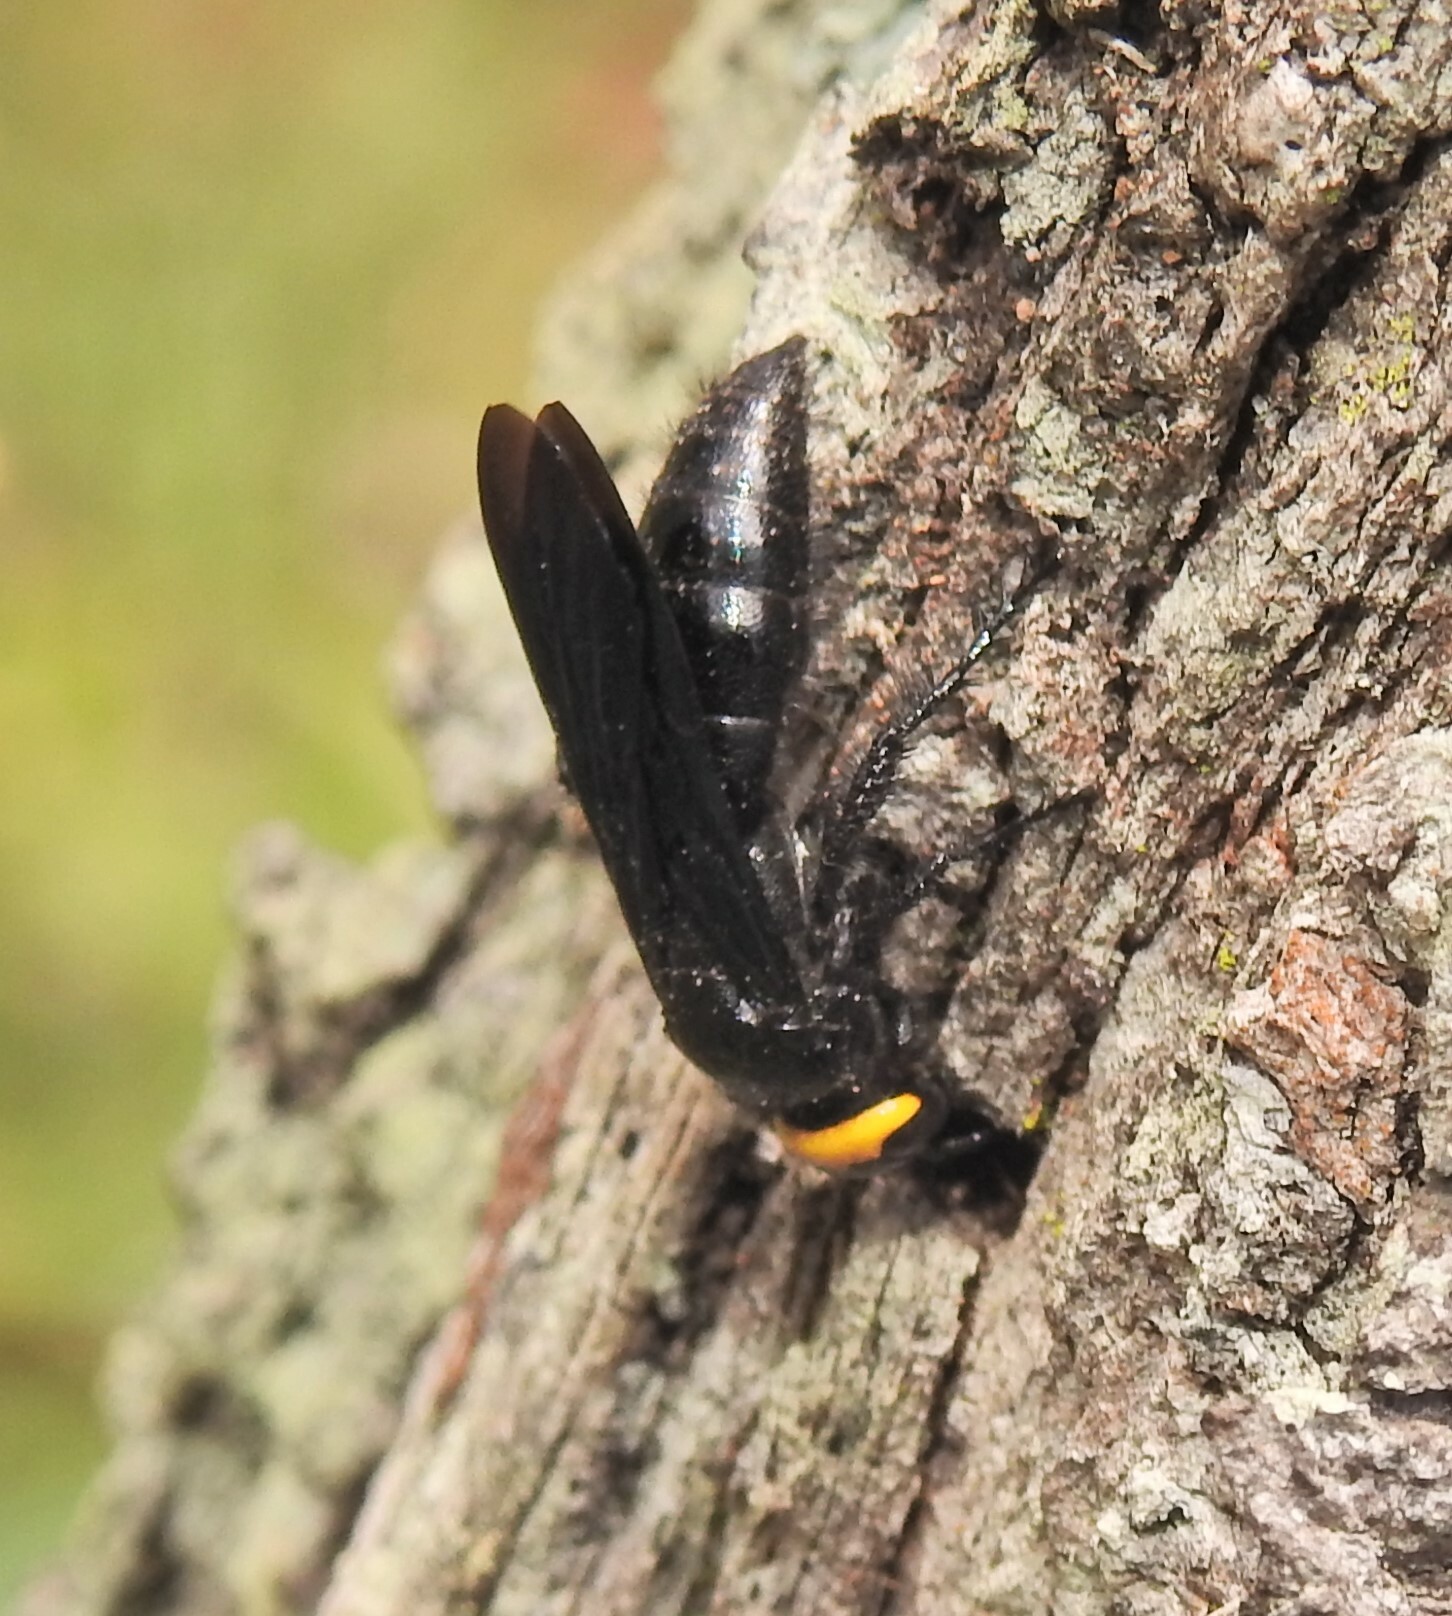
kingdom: Animalia
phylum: Arthropoda
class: Insecta
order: Hymenoptera
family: Scoliidae
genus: Scolia
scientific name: Scolia verticalis
